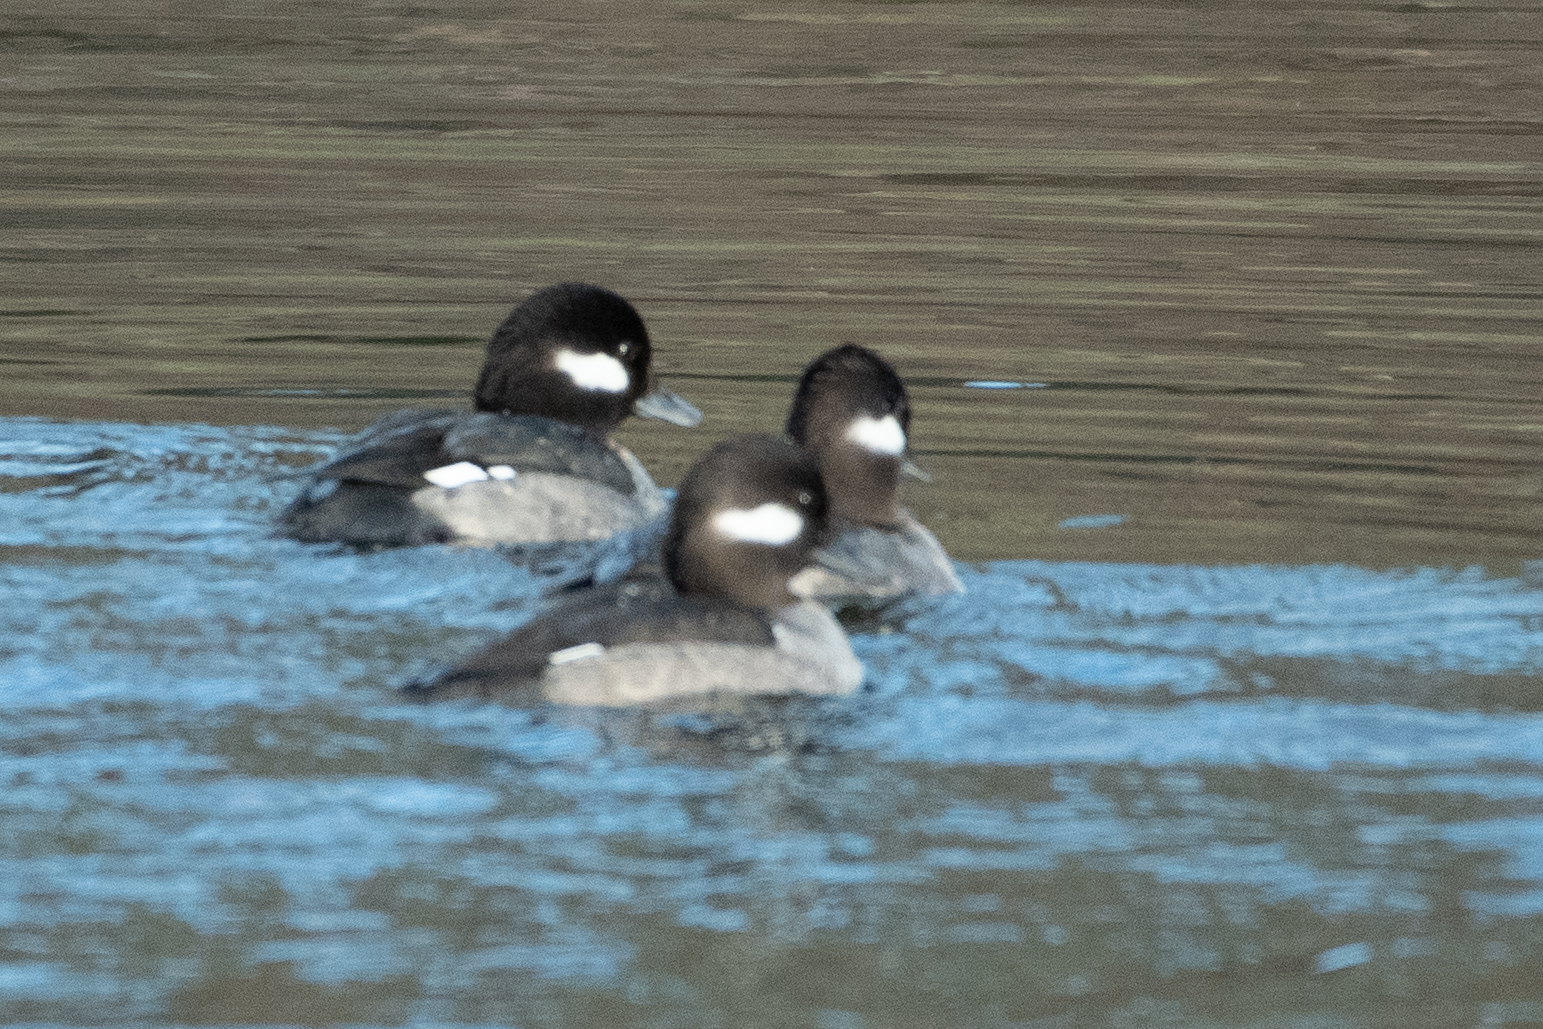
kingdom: Animalia
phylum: Chordata
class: Aves
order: Anseriformes
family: Anatidae
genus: Bucephala
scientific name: Bucephala albeola
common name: Bufflehead
